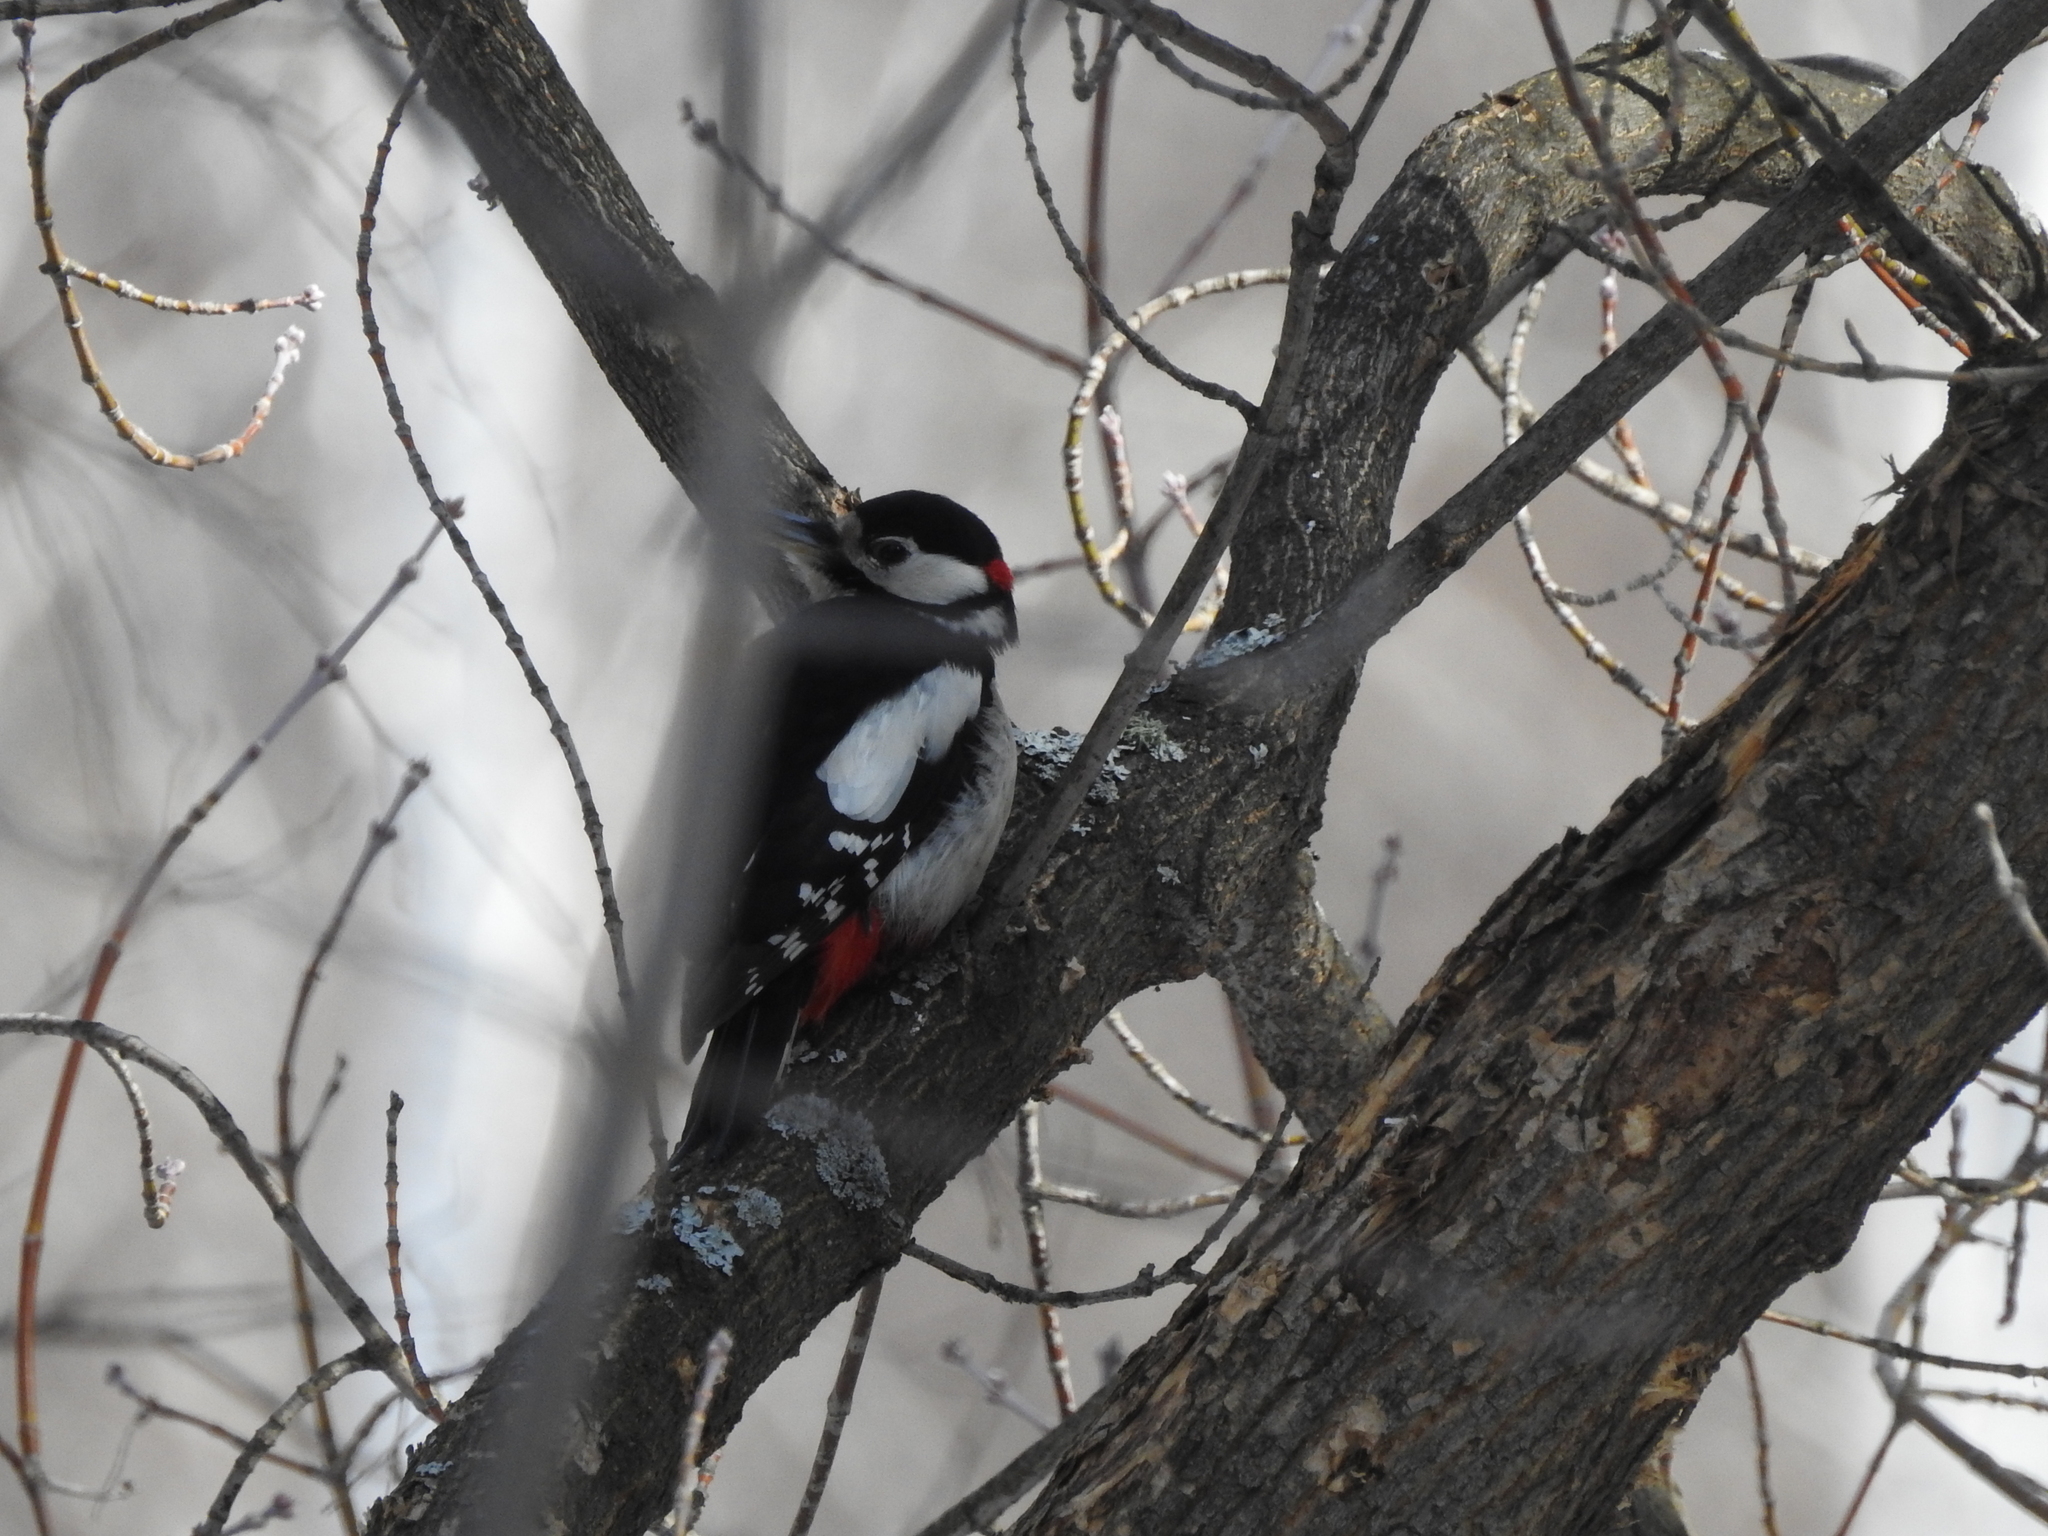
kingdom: Animalia
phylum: Chordata
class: Aves
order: Piciformes
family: Picidae
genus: Dendrocopos
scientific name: Dendrocopos major
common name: Great spotted woodpecker
